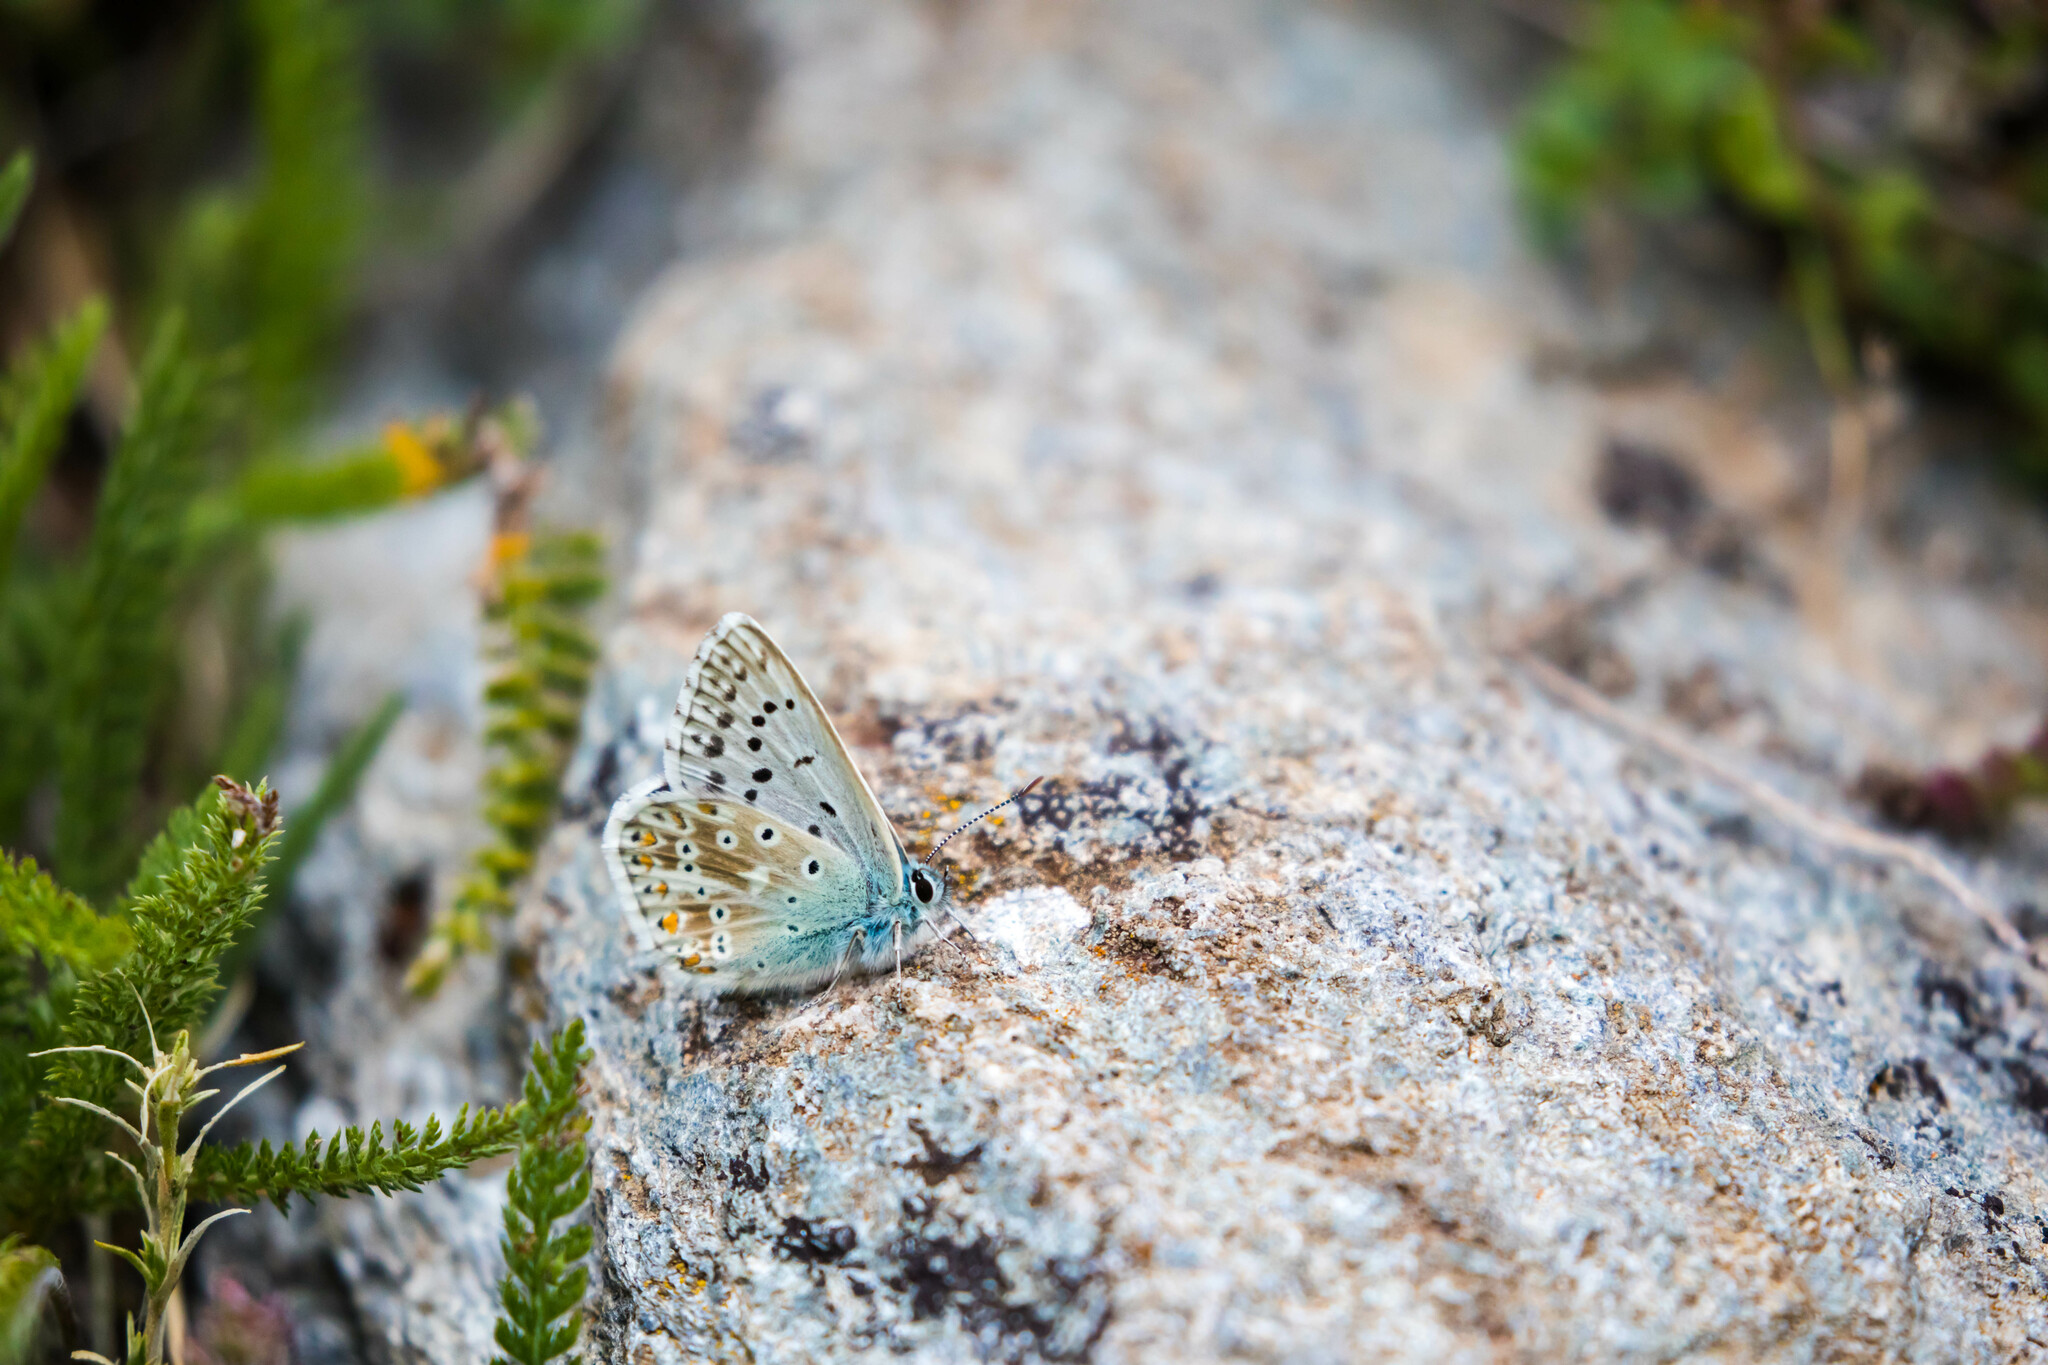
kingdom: Animalia
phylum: Arthropoda
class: Insecta
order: Lepidoptera
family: Lycaenidae
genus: Lysandra
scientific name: Lysandra coridon
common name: Chalkhill blue
